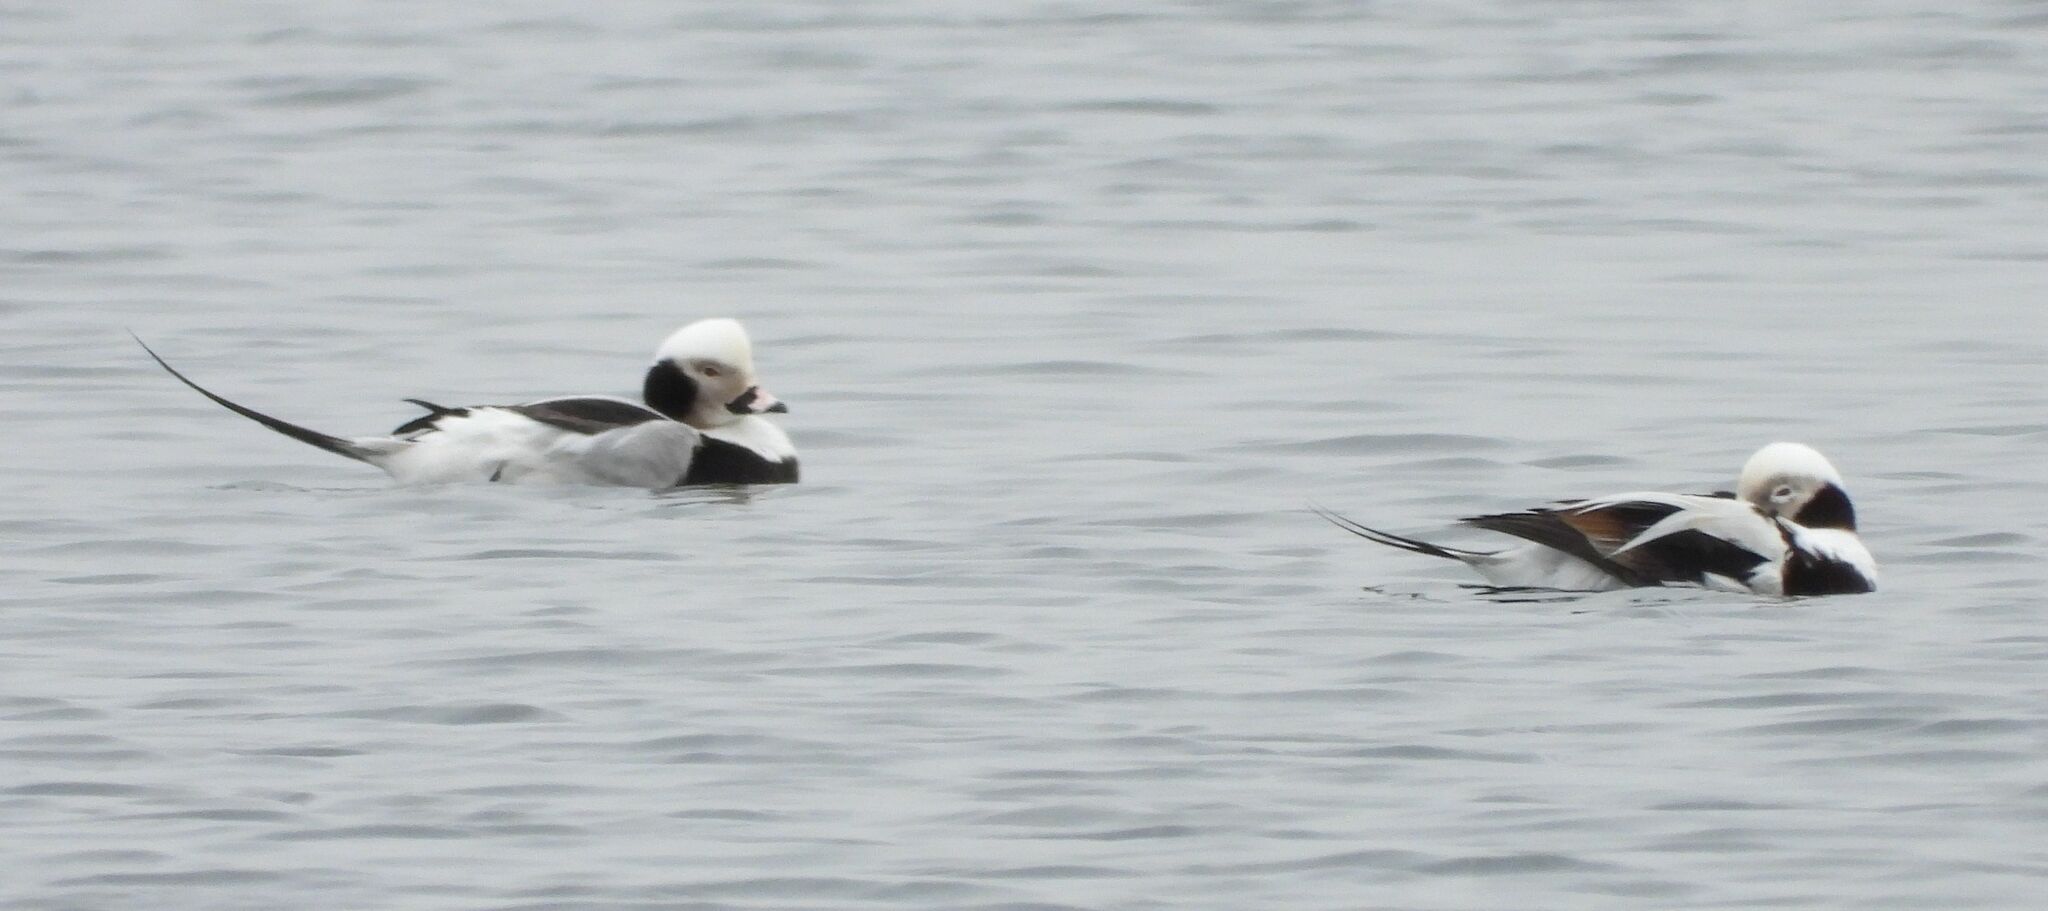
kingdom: Animalia
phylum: Chordata
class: Aves
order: Anseriformes
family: Anatidae
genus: Clangula
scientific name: Clangula hyemalis
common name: Long-tailed duck
